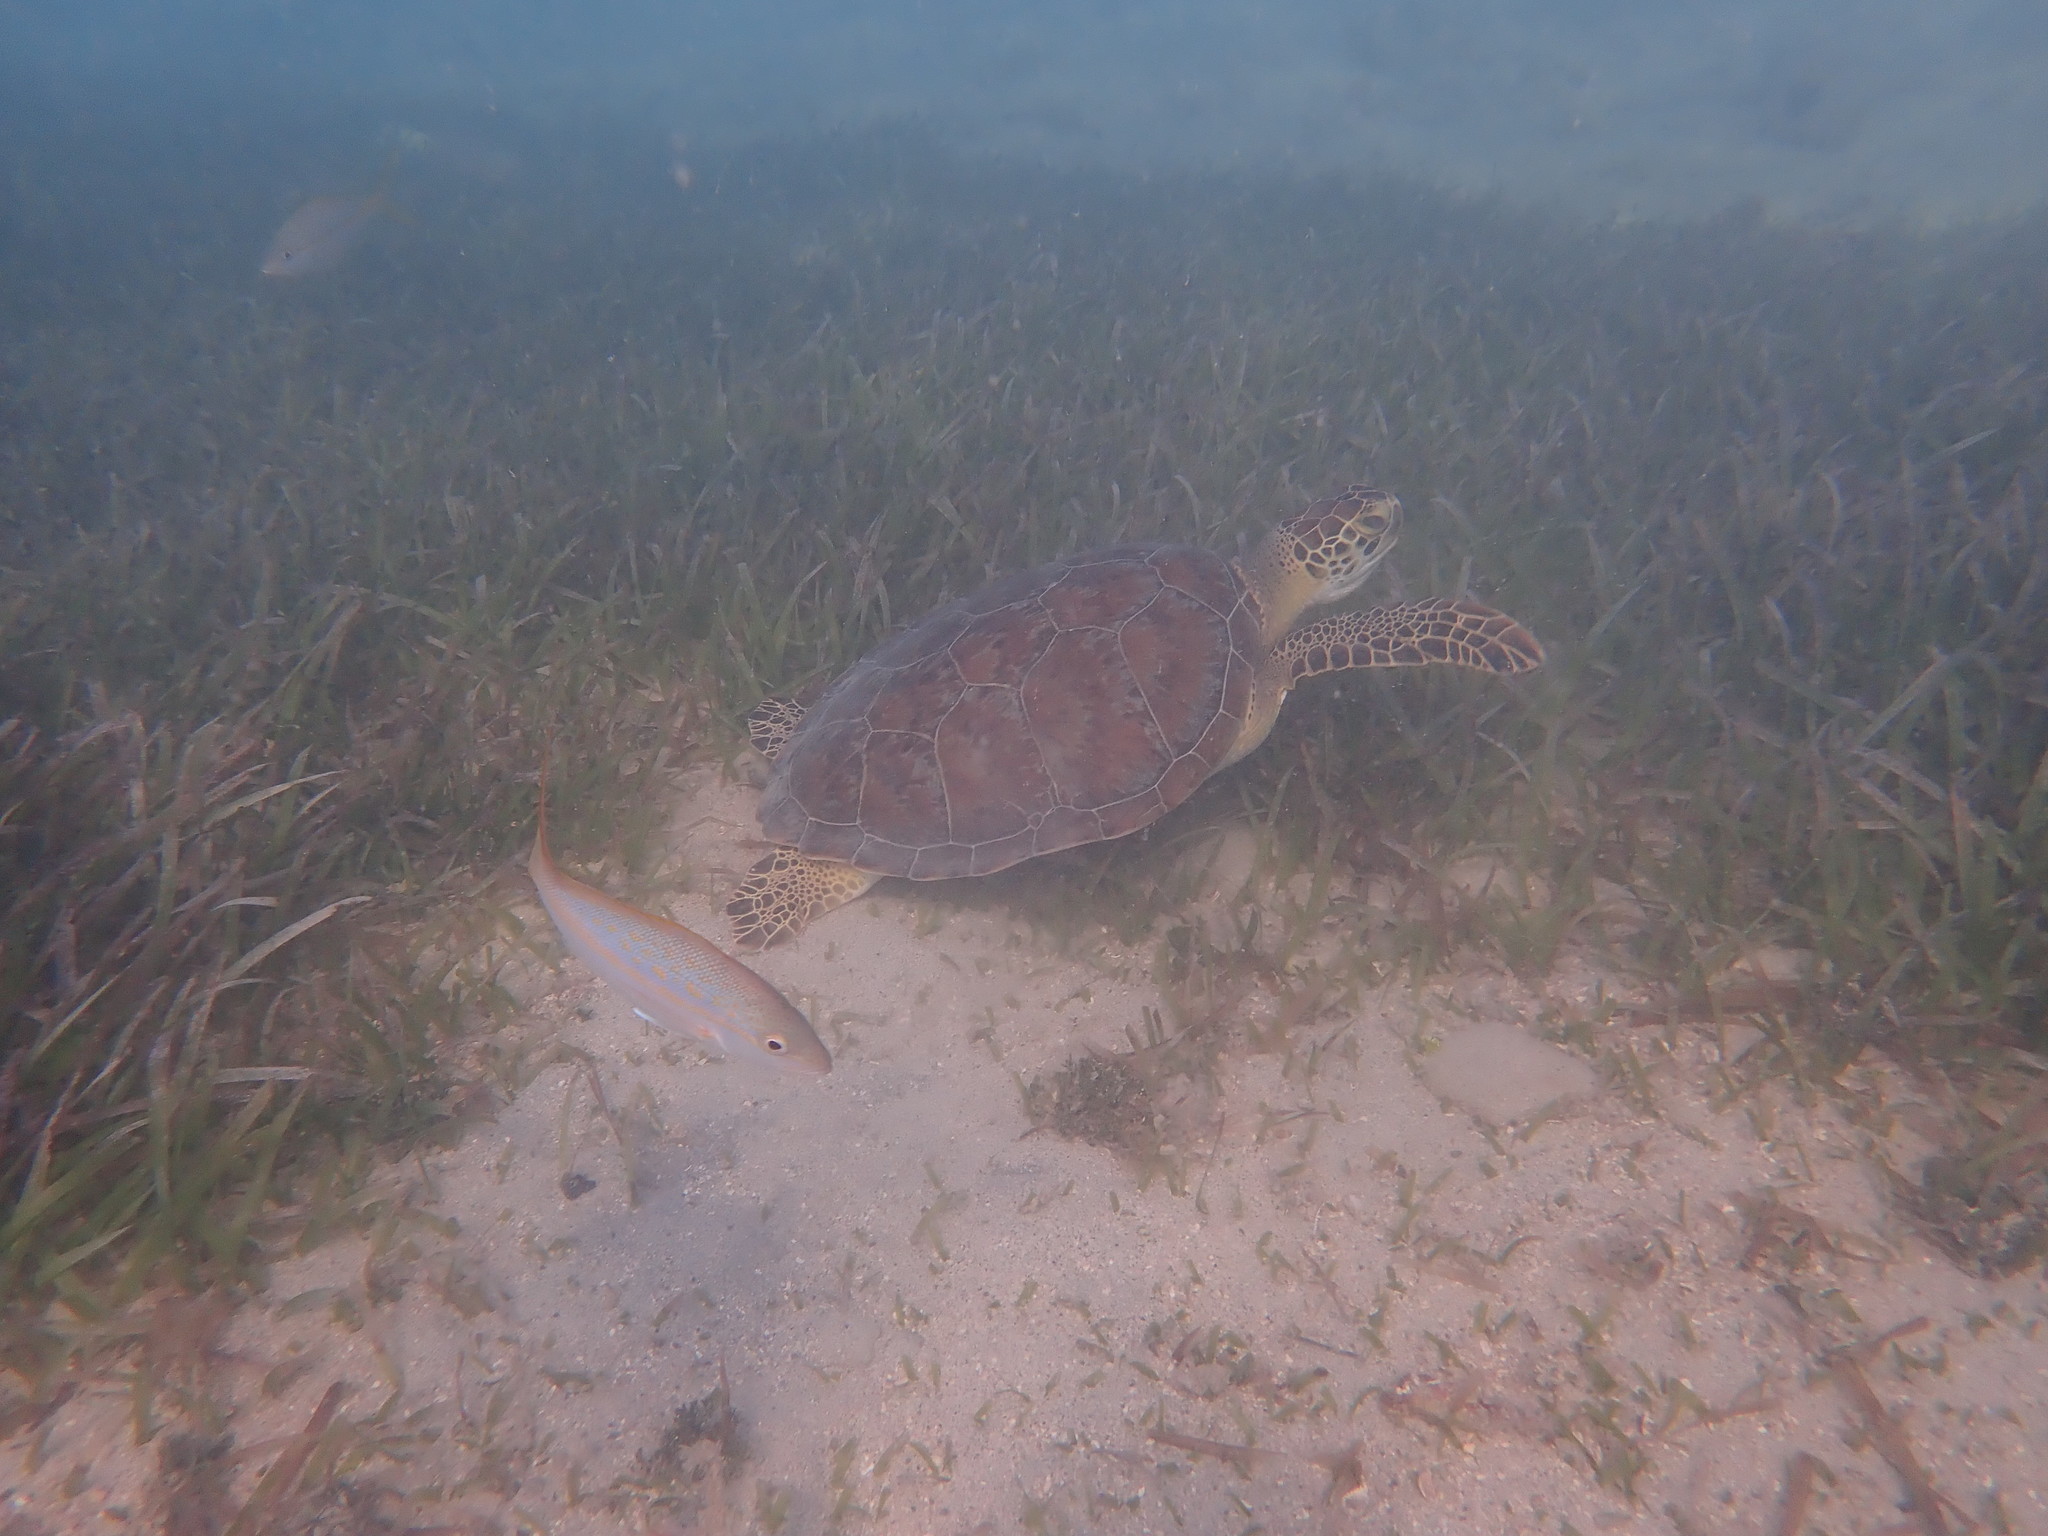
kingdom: Animalia
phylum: Chordata
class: Testudines
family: Cheloniidae
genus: Chelonia
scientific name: Chelonia mydas
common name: Green turtle
